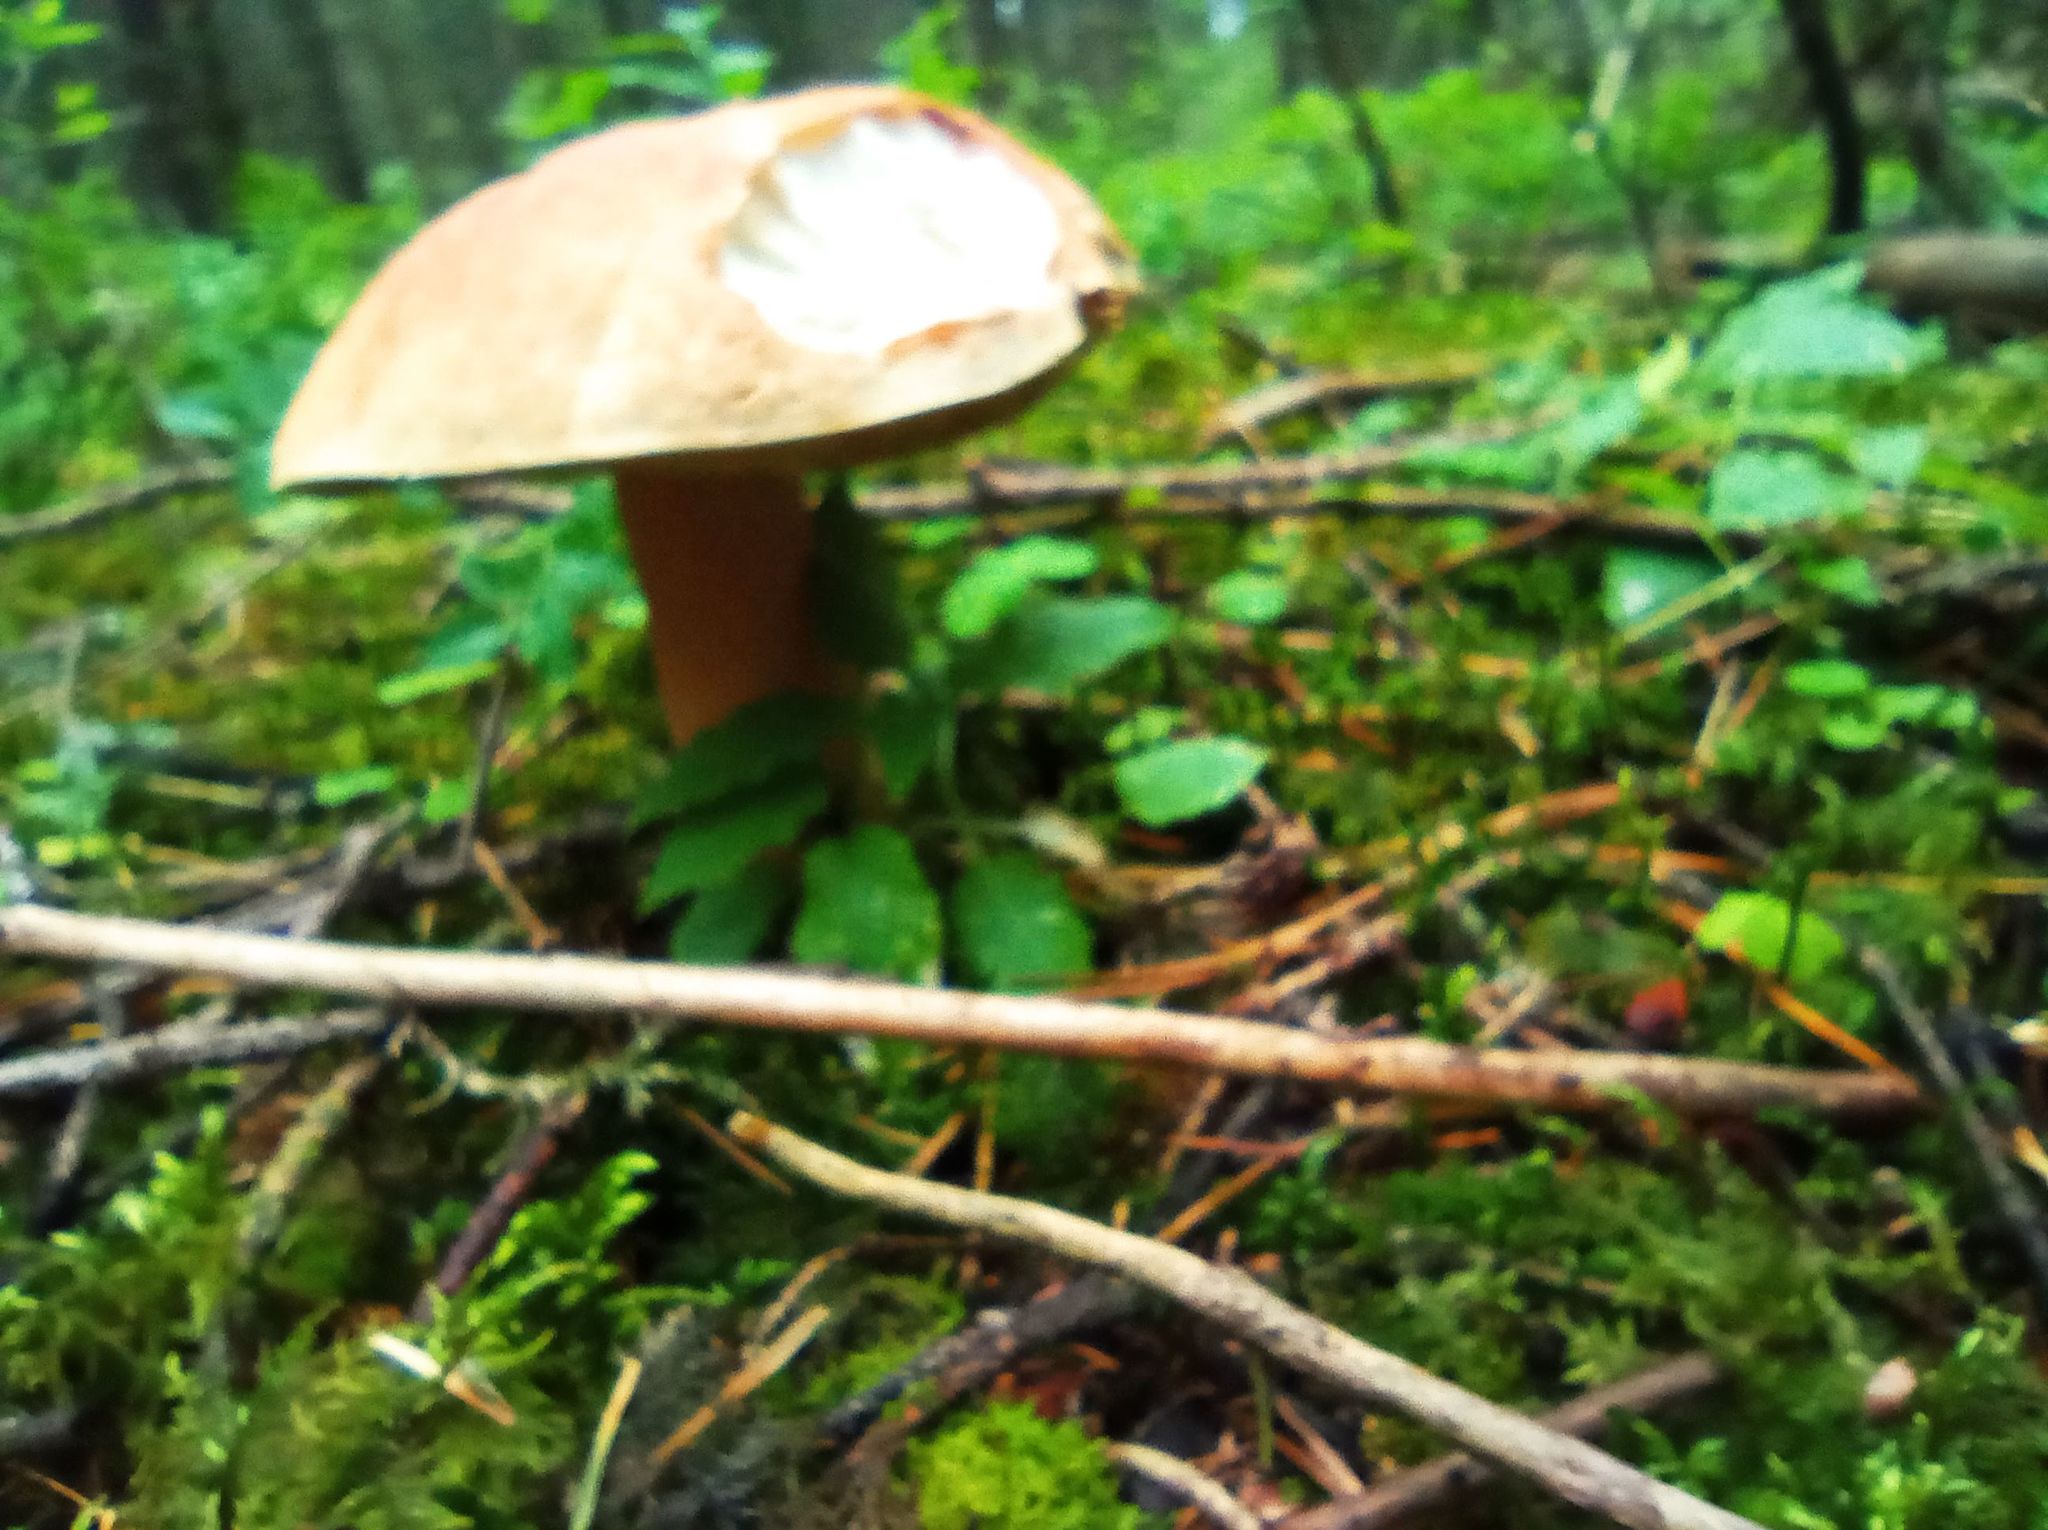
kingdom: Fungi
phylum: Basidiomycota
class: Agaricomycetes
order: Boletales
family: Boletaceae
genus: Boletus
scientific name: Boletus edulis
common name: Cep
